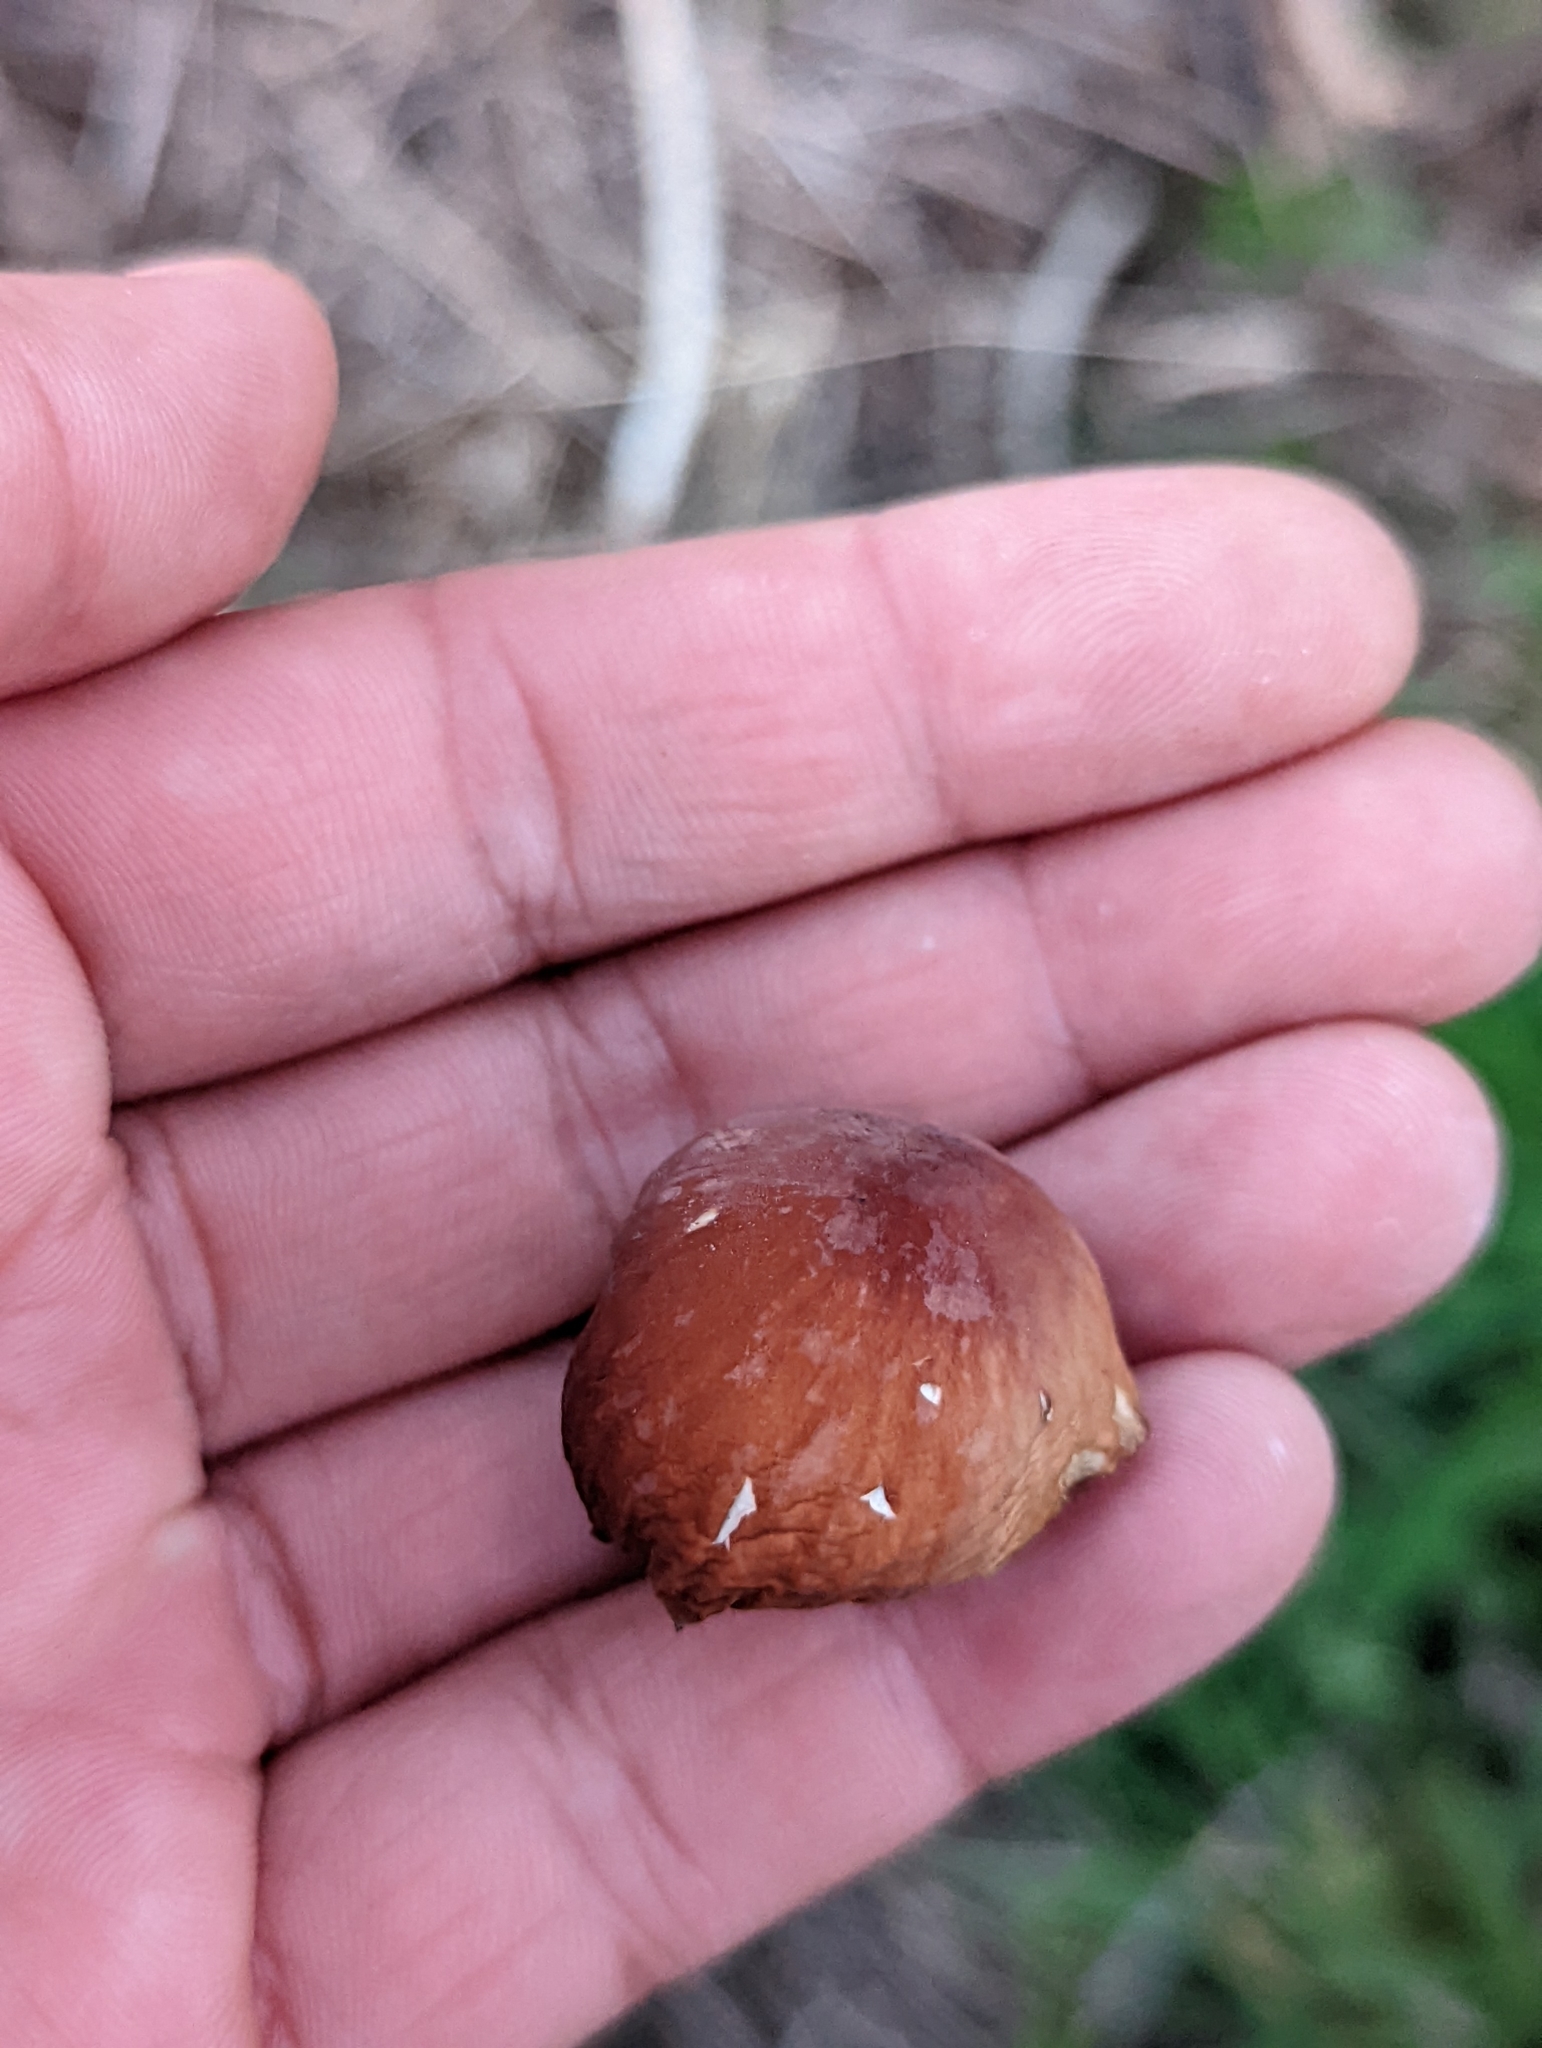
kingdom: Fungi
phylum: Basidiomycota
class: Agaricomycetes
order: Agaricales
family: Marasmiaceae
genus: Marasmius
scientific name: Marasmius plicatulus
